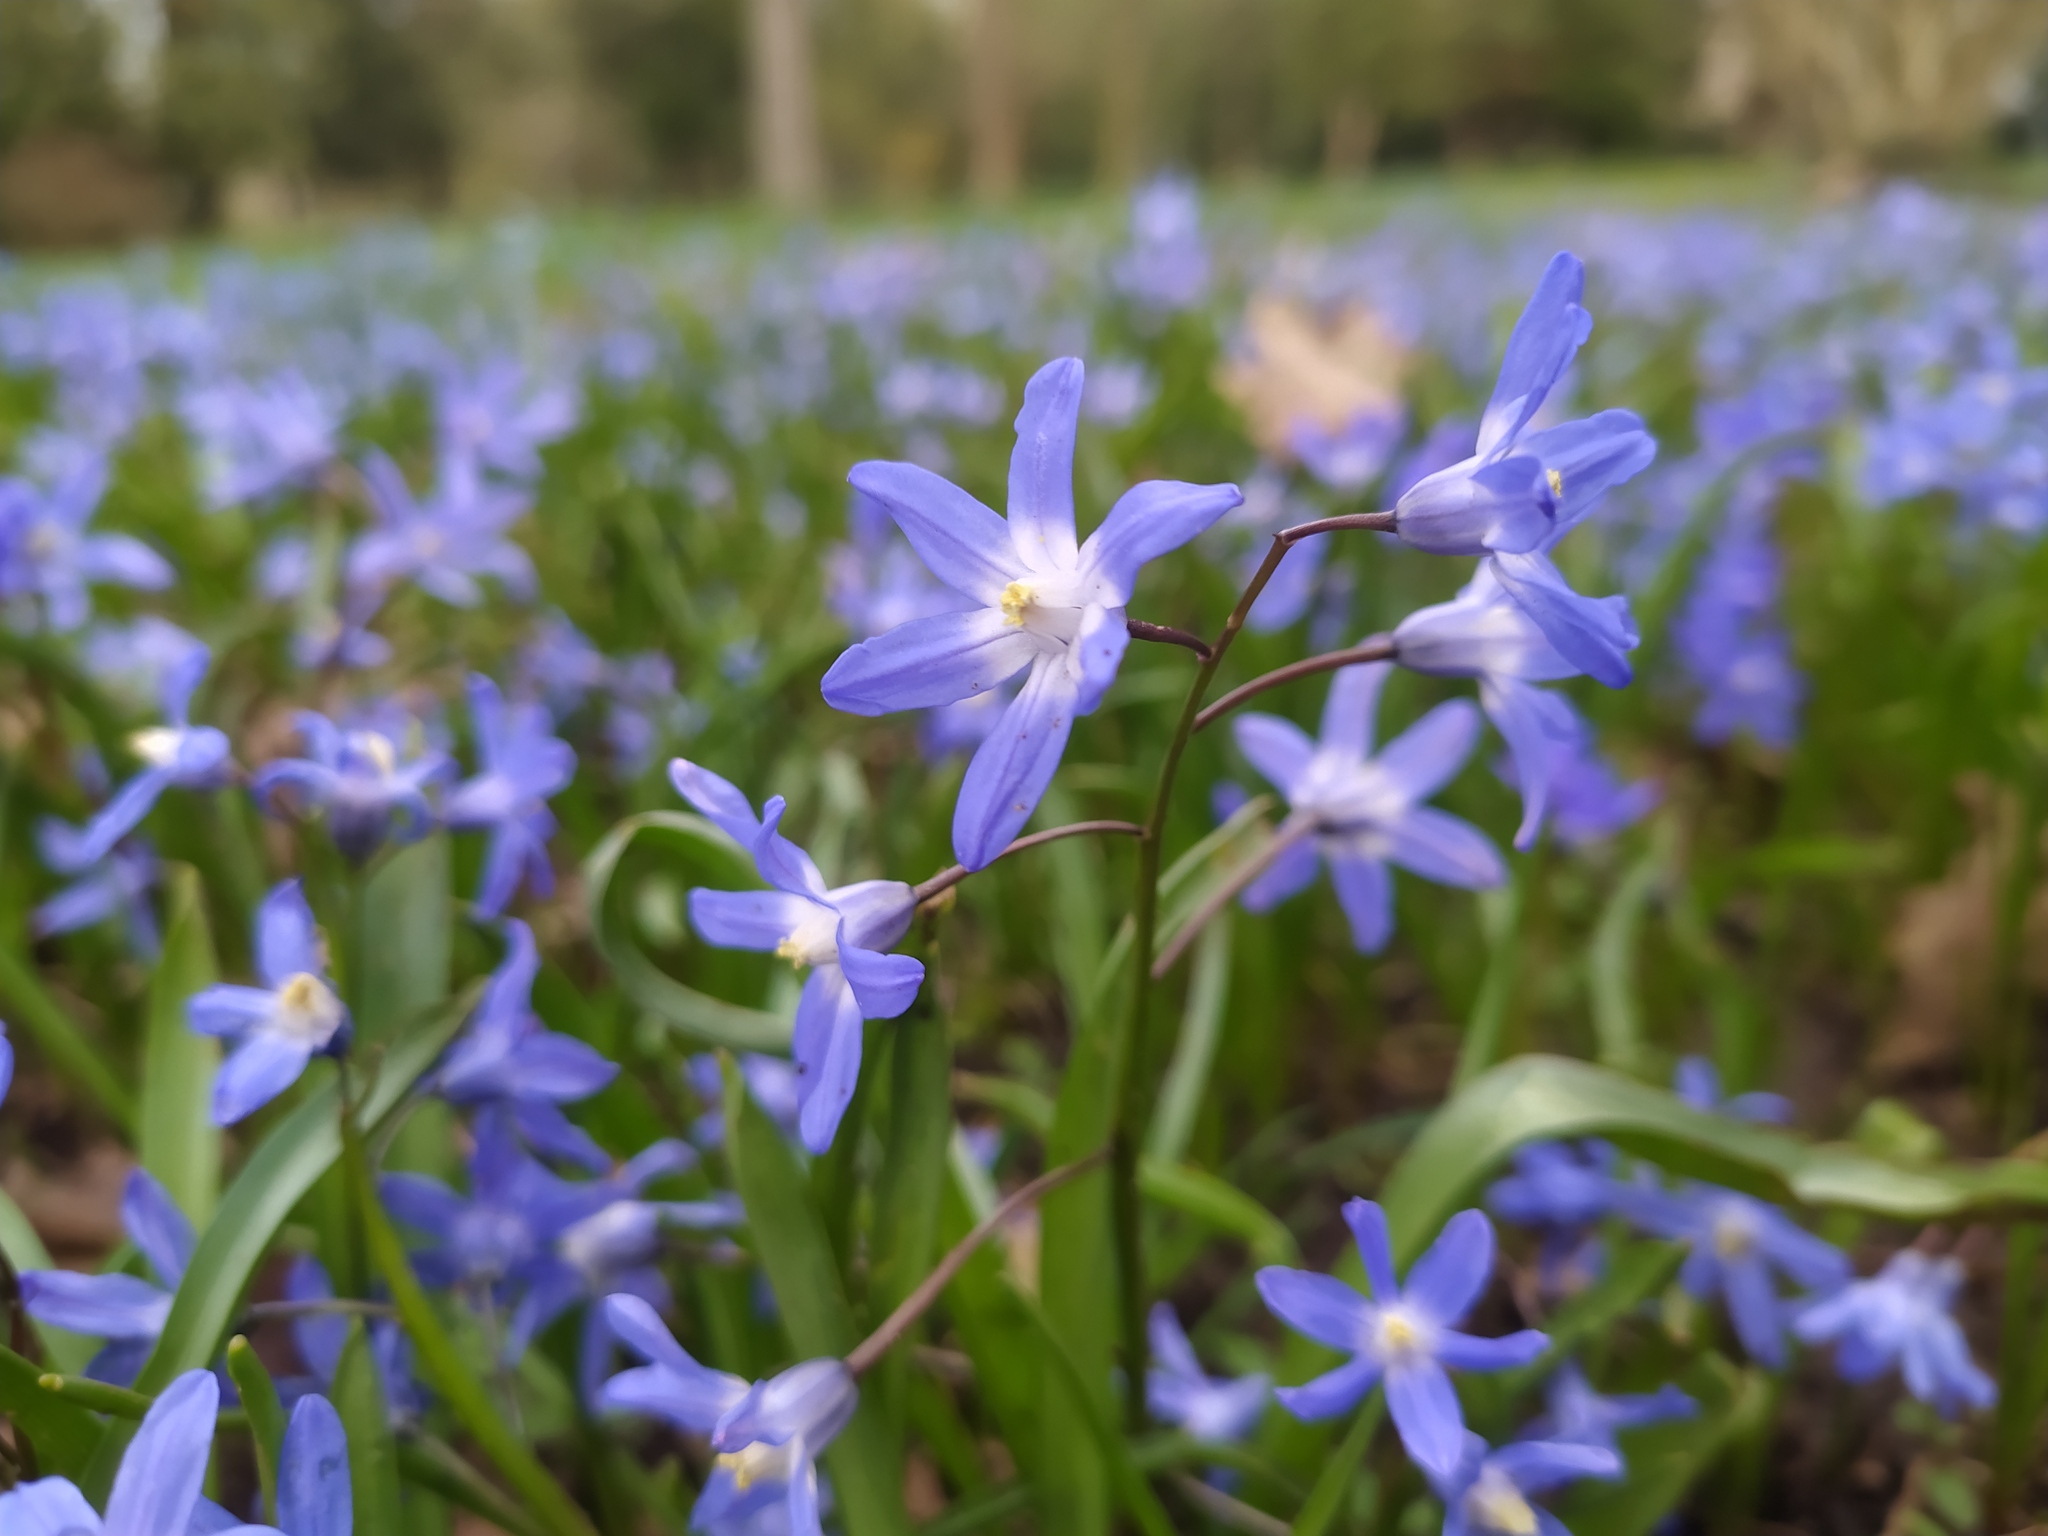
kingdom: Plantae
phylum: Tracheophyta
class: Liliopsida
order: Asparagales
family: Asparagaceae
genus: Scilla
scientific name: Scilla forbesii
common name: Glory-of-the-snow
